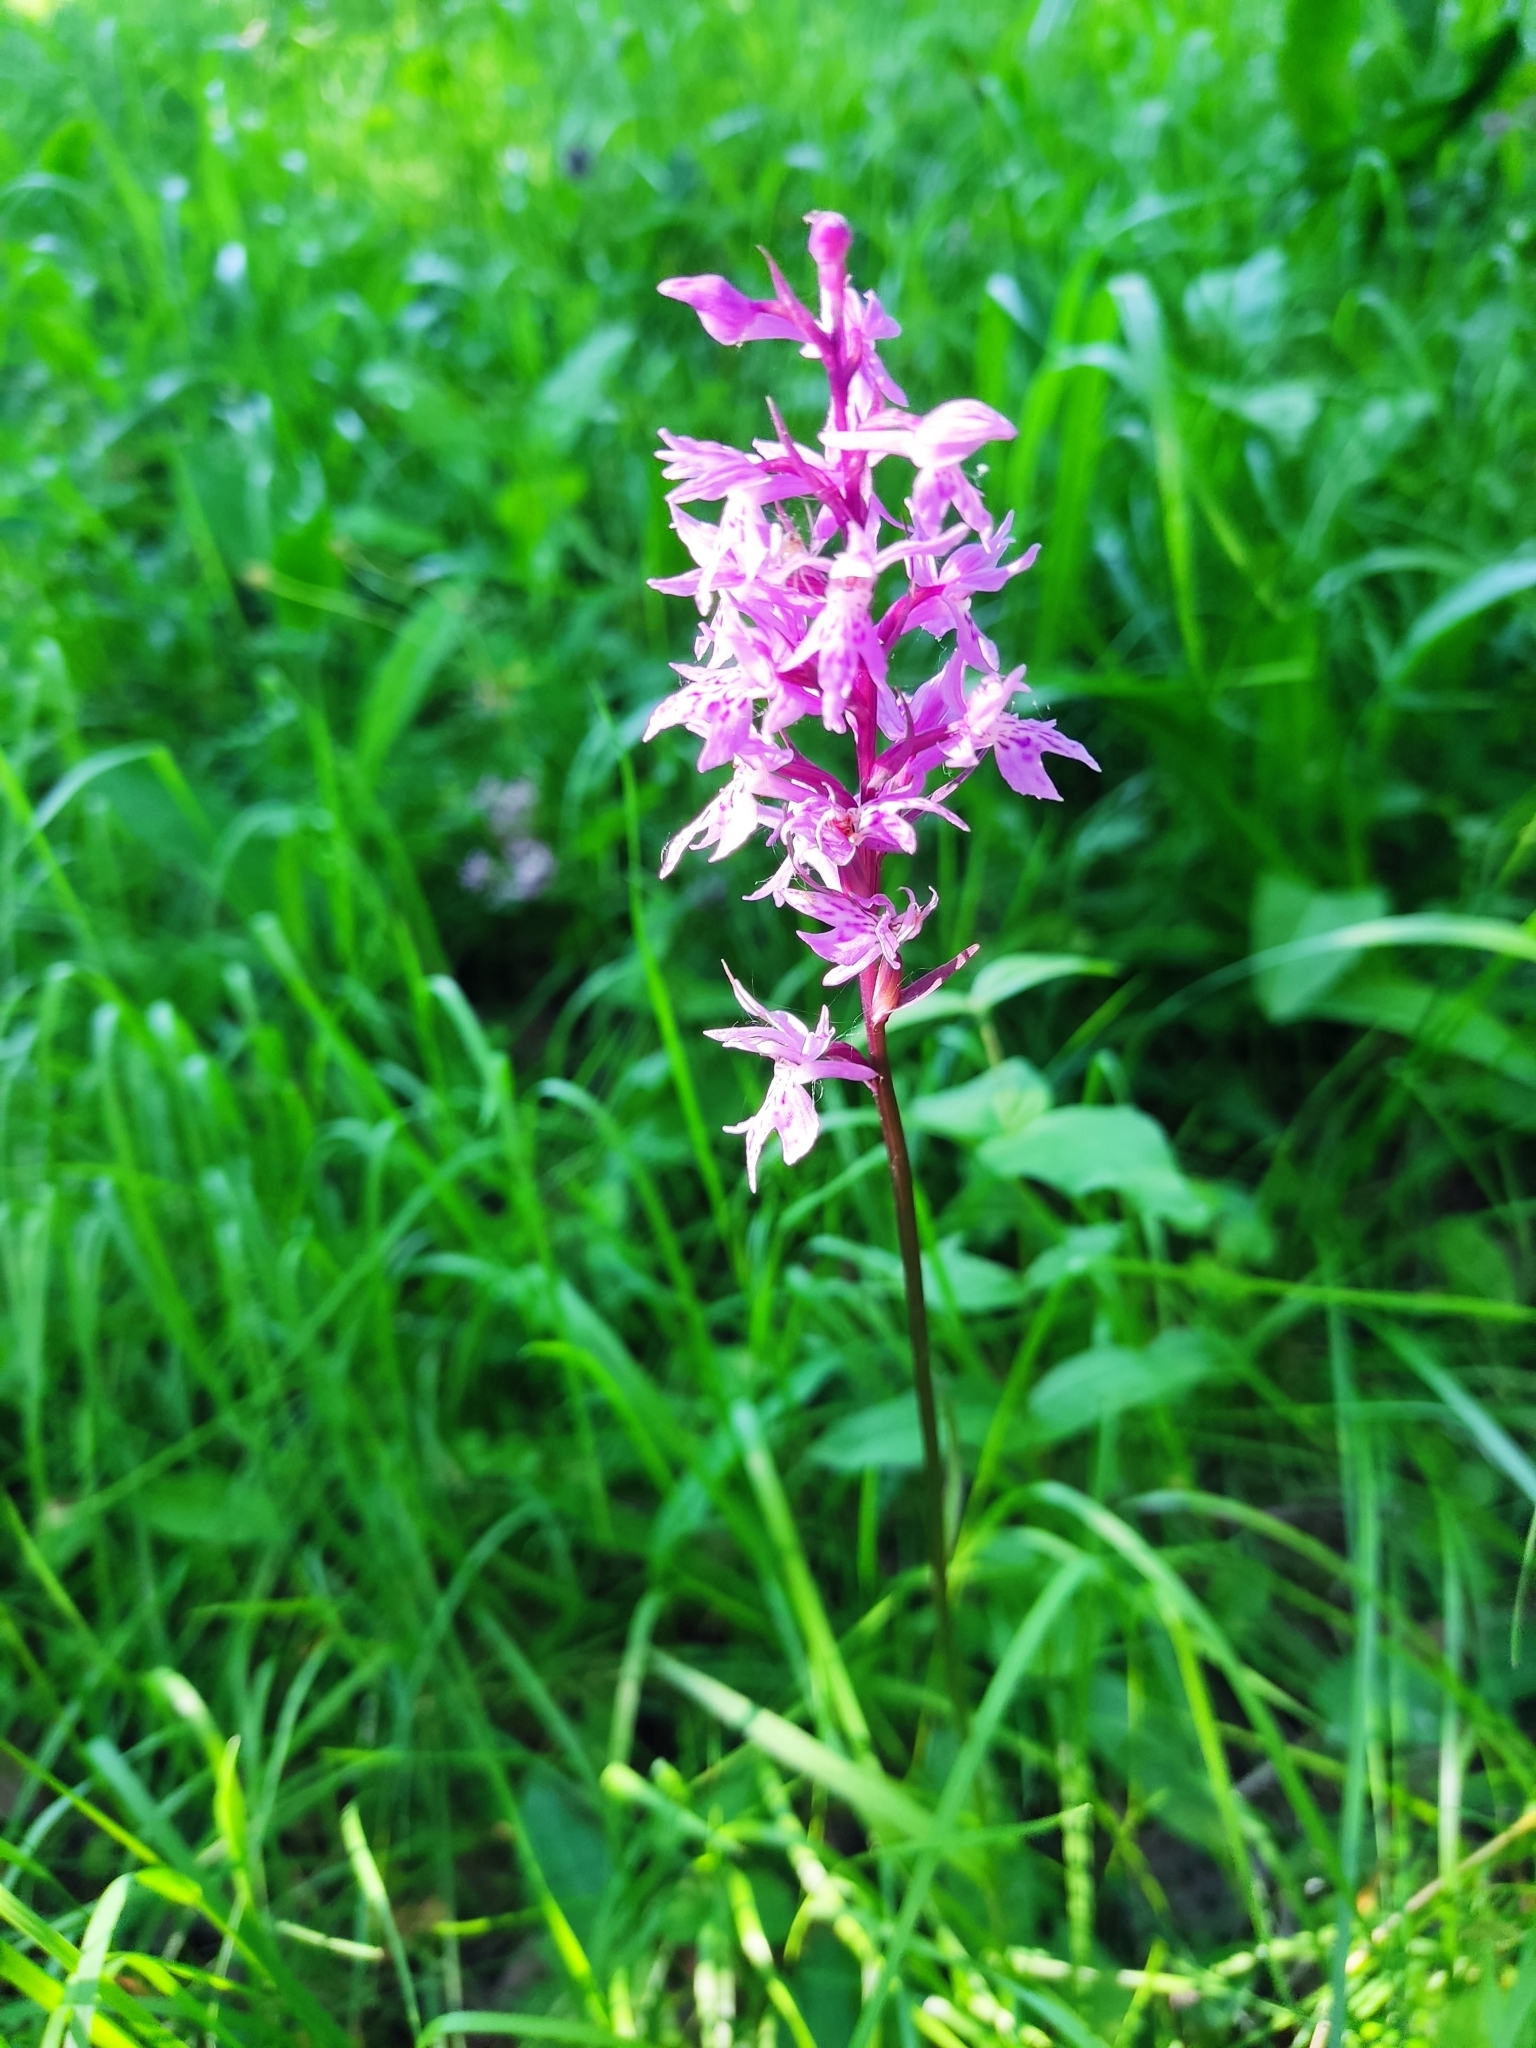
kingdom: Plantae
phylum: Tracheophyta
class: Liliopsida
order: Asparagales
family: Orchidaceae
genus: Dactylorhiza
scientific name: Dactylorhiza maculata
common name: Heath spotted-orchid
